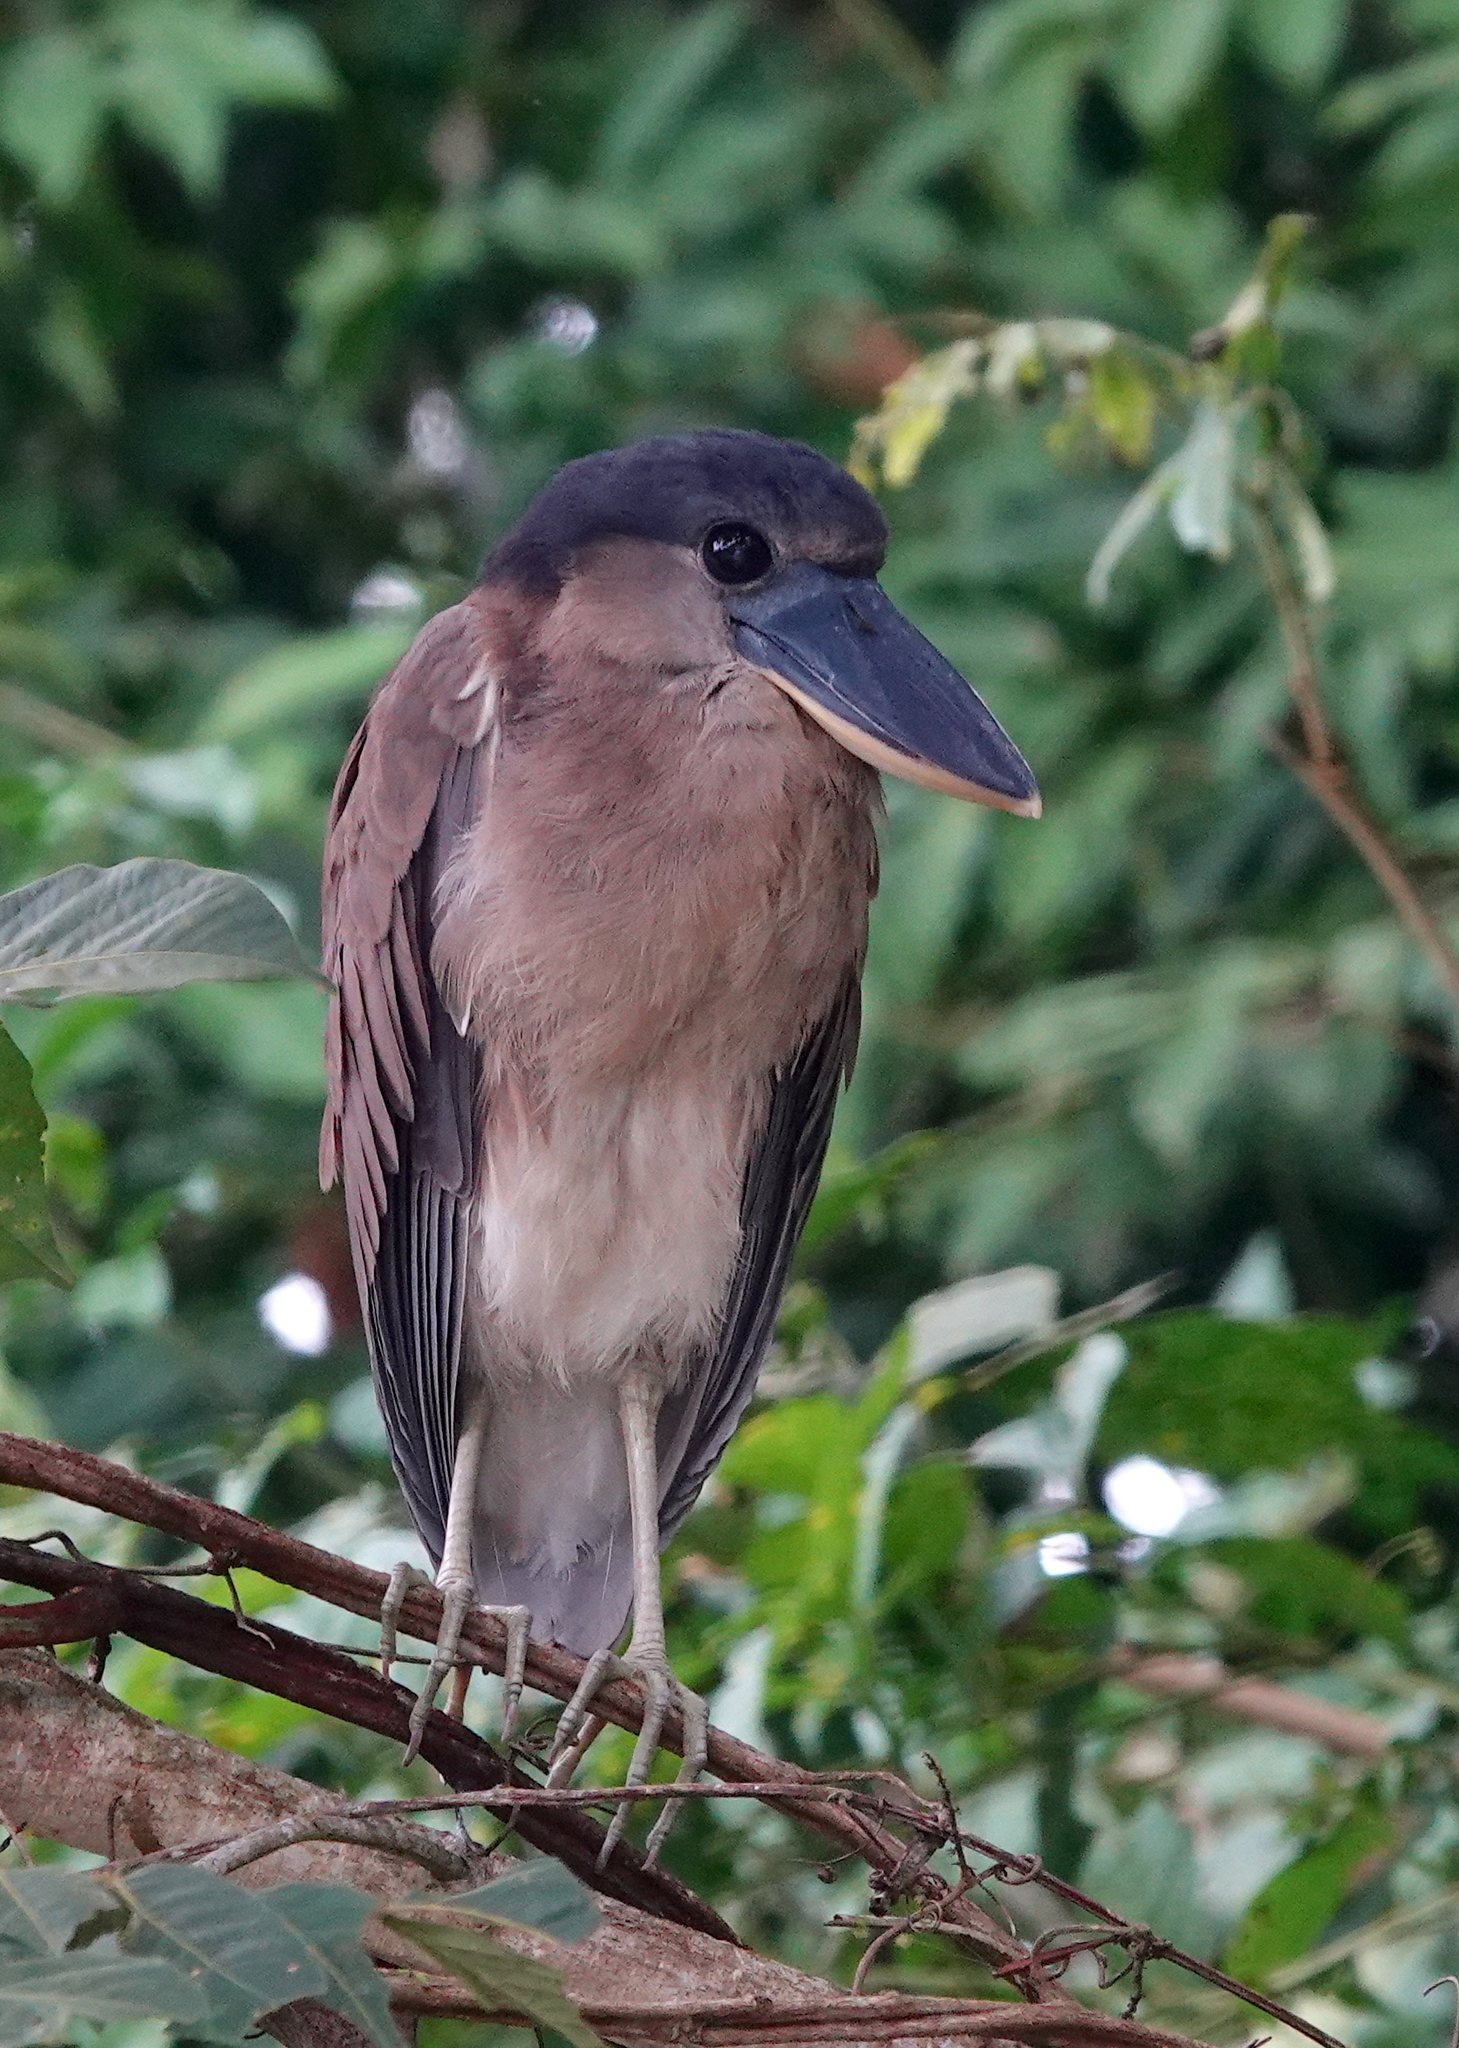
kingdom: Animalia
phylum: Chordata
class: Aves
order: Pelecaniformes
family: Ardeidae
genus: Cochlearius
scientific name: Cochlearius cochlearius
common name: Boat-billed heron
